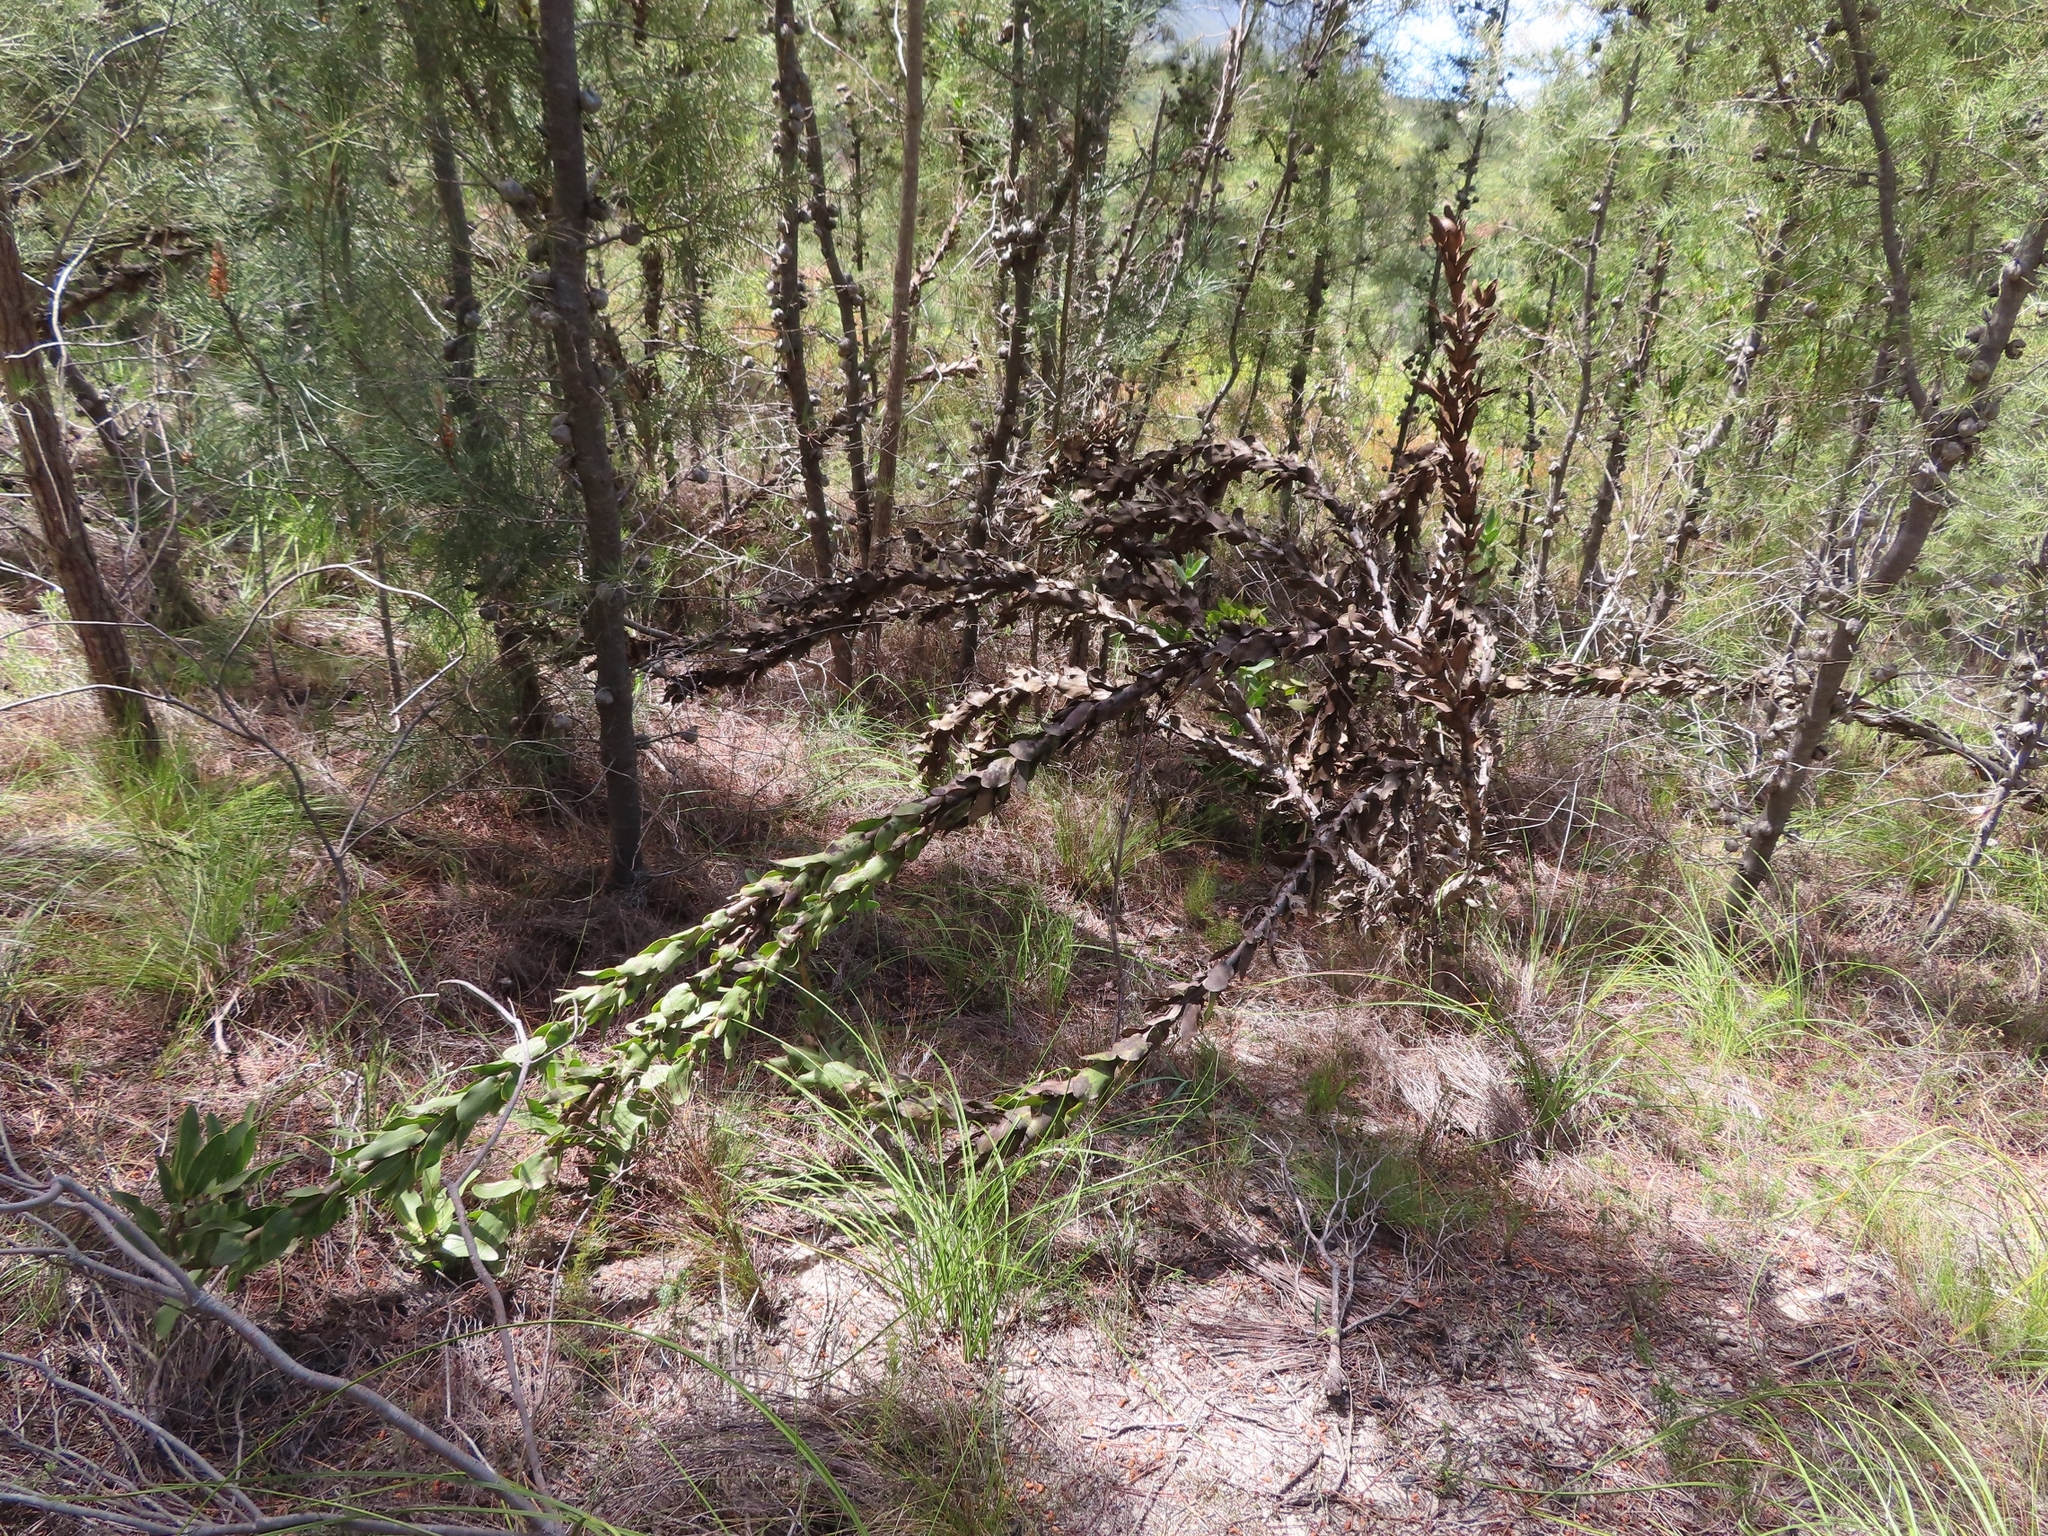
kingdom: Plantae
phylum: Tracheophyta
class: Magnoliopsida
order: Proteales
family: Proteaceae
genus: Protea
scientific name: Protea compacta
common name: Bot river protea
